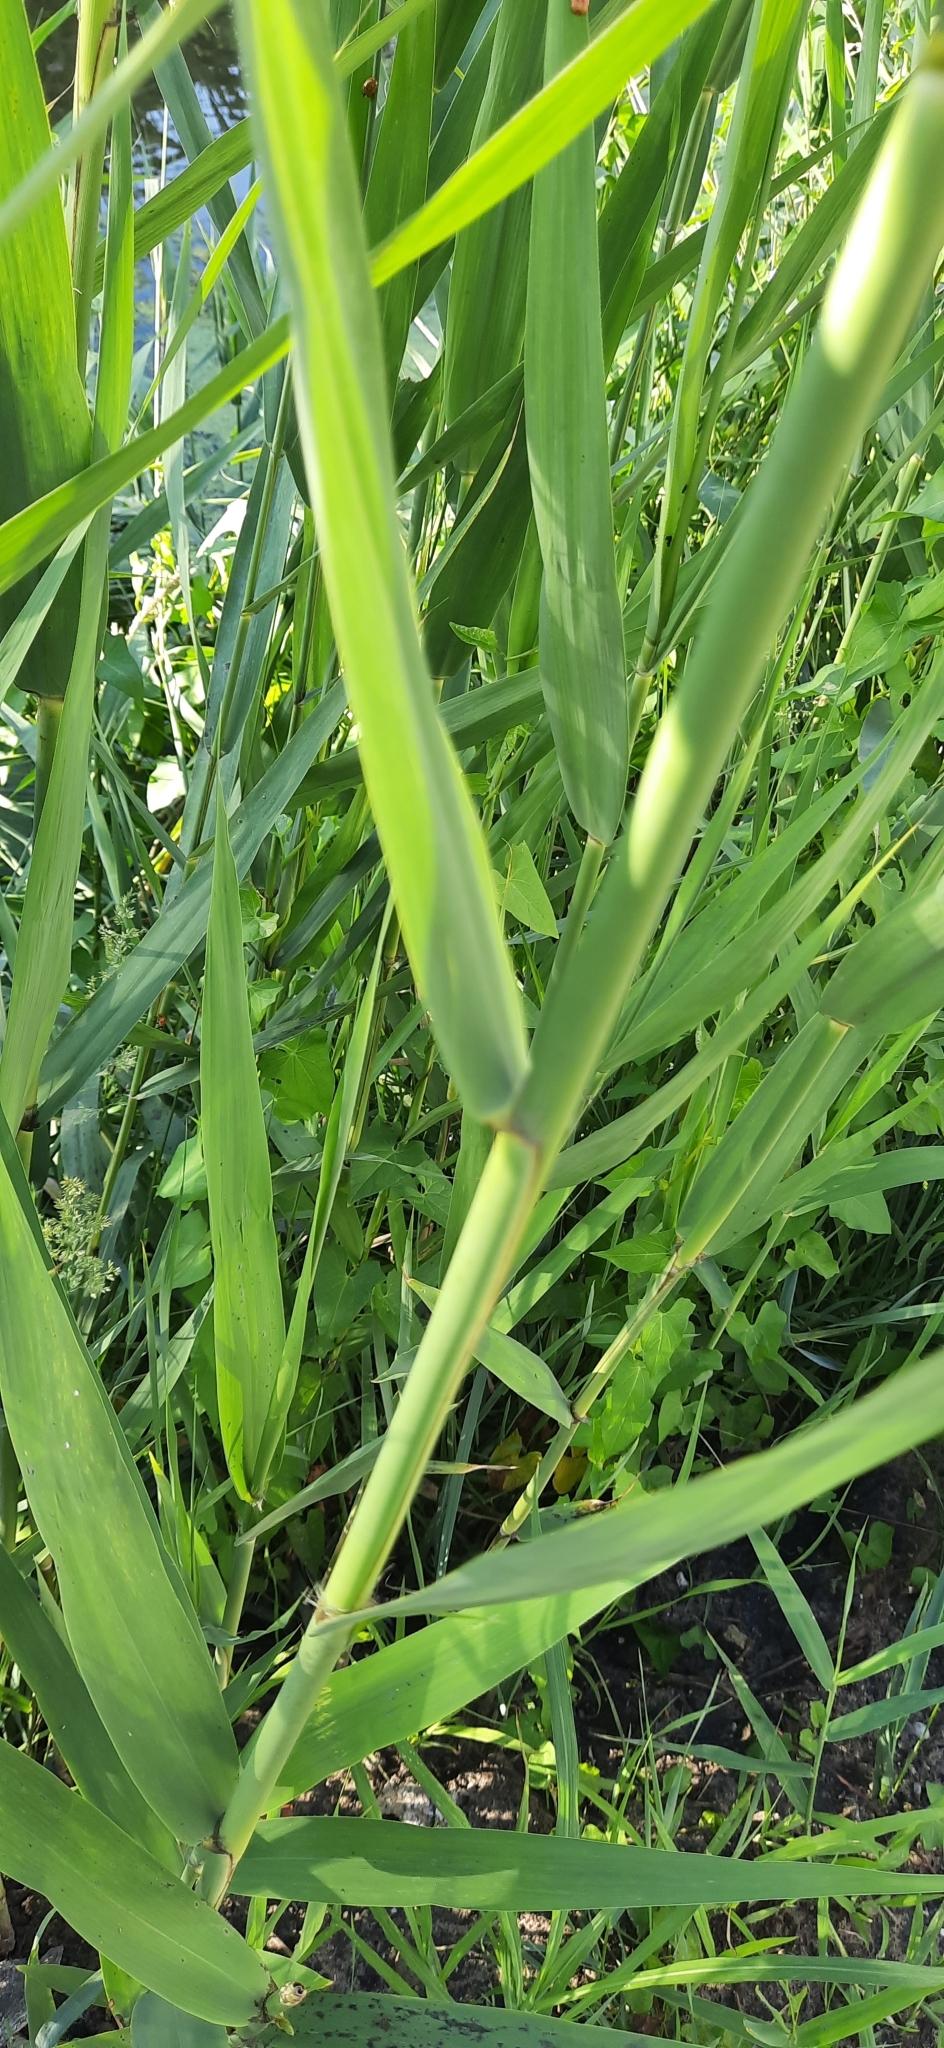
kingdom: Plantae
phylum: Tracheophyta
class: Liliopsida
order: Poales
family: Poaceae
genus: Phragmites
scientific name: Phragmites australis
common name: Common reed
